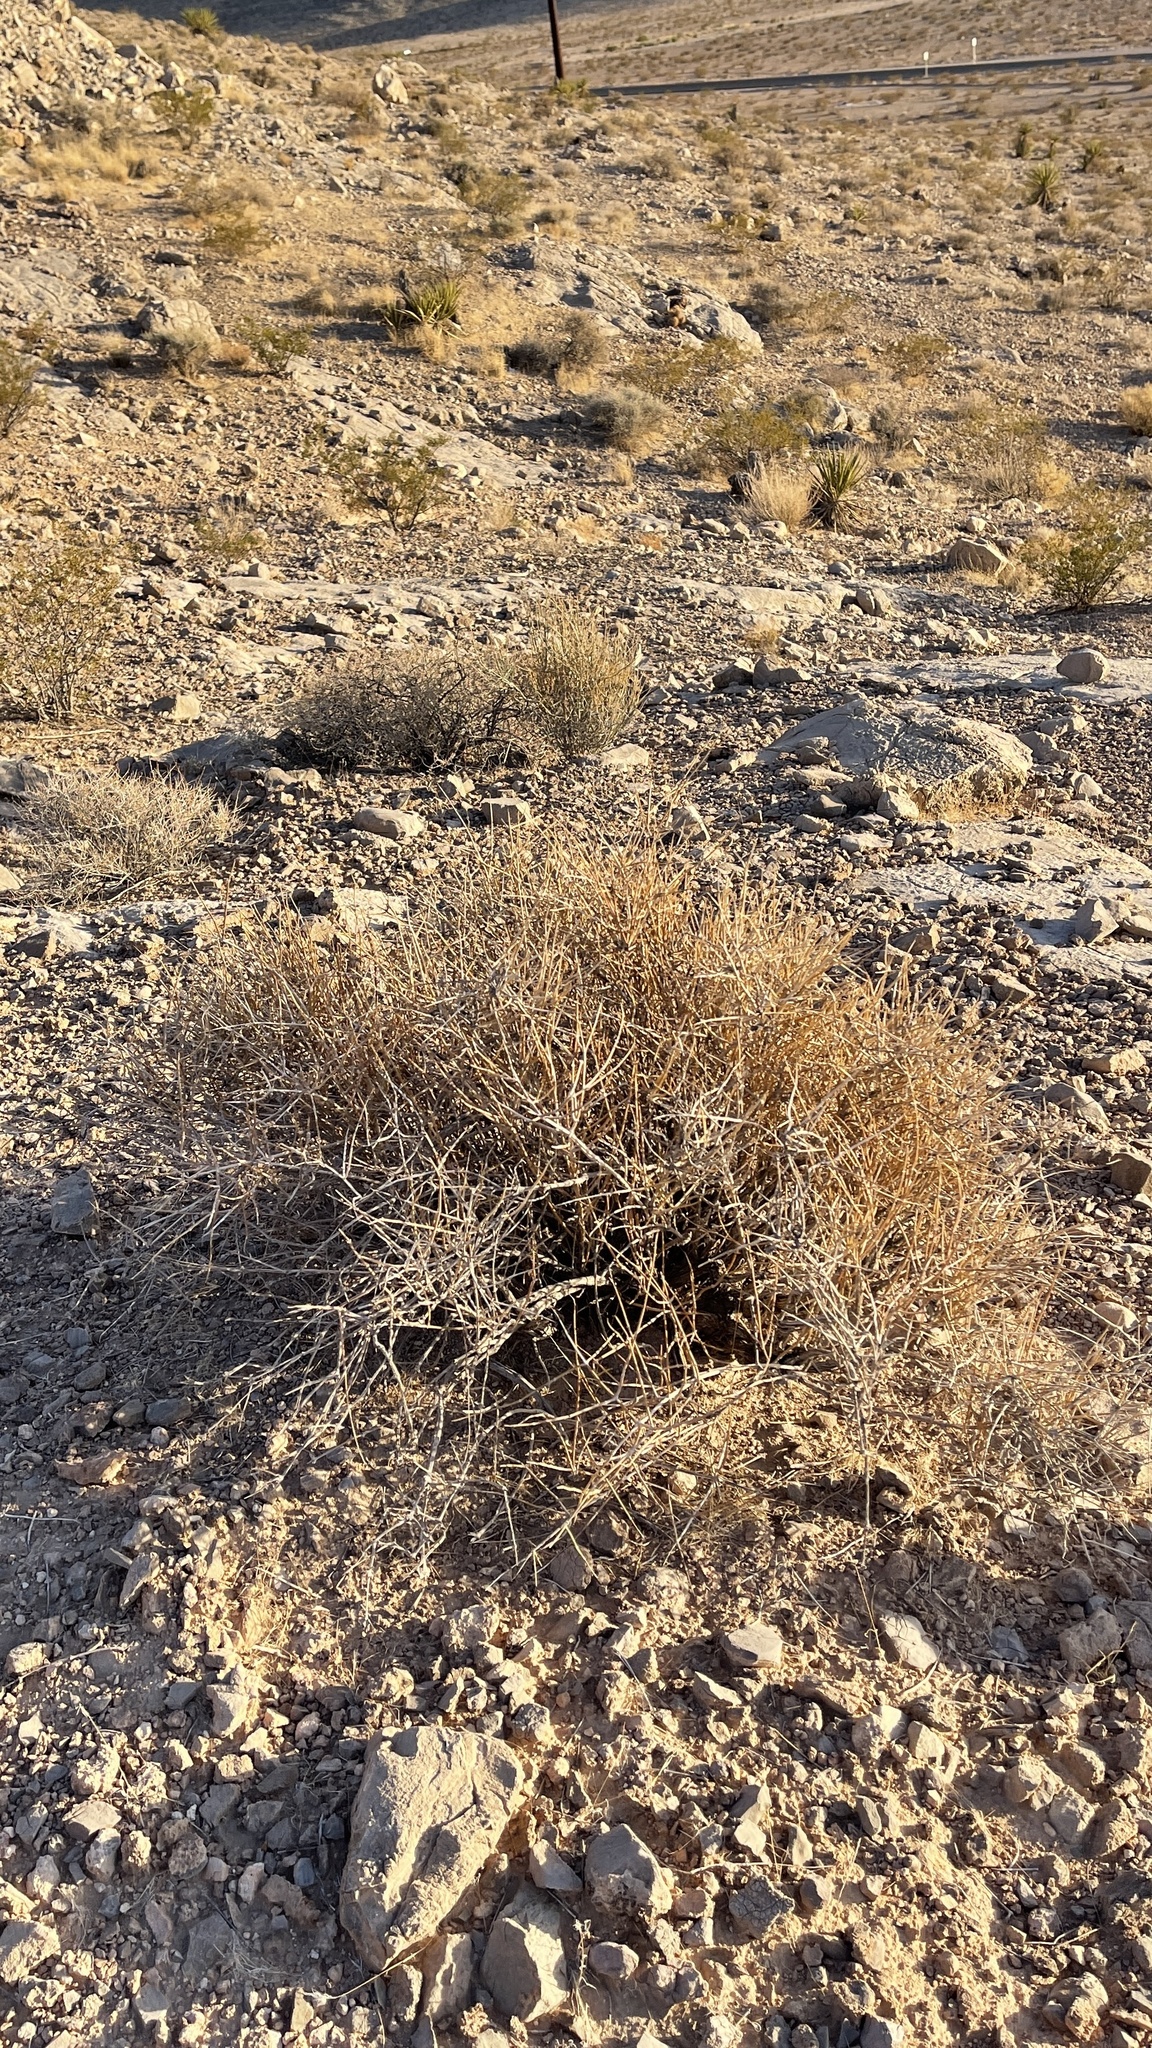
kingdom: Plantae
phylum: Tracheophyta
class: Gnetopsida
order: Ephedrales
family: Ephedraceae
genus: Ephedra
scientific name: Ephedra nevadensis
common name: Gray ephedra
